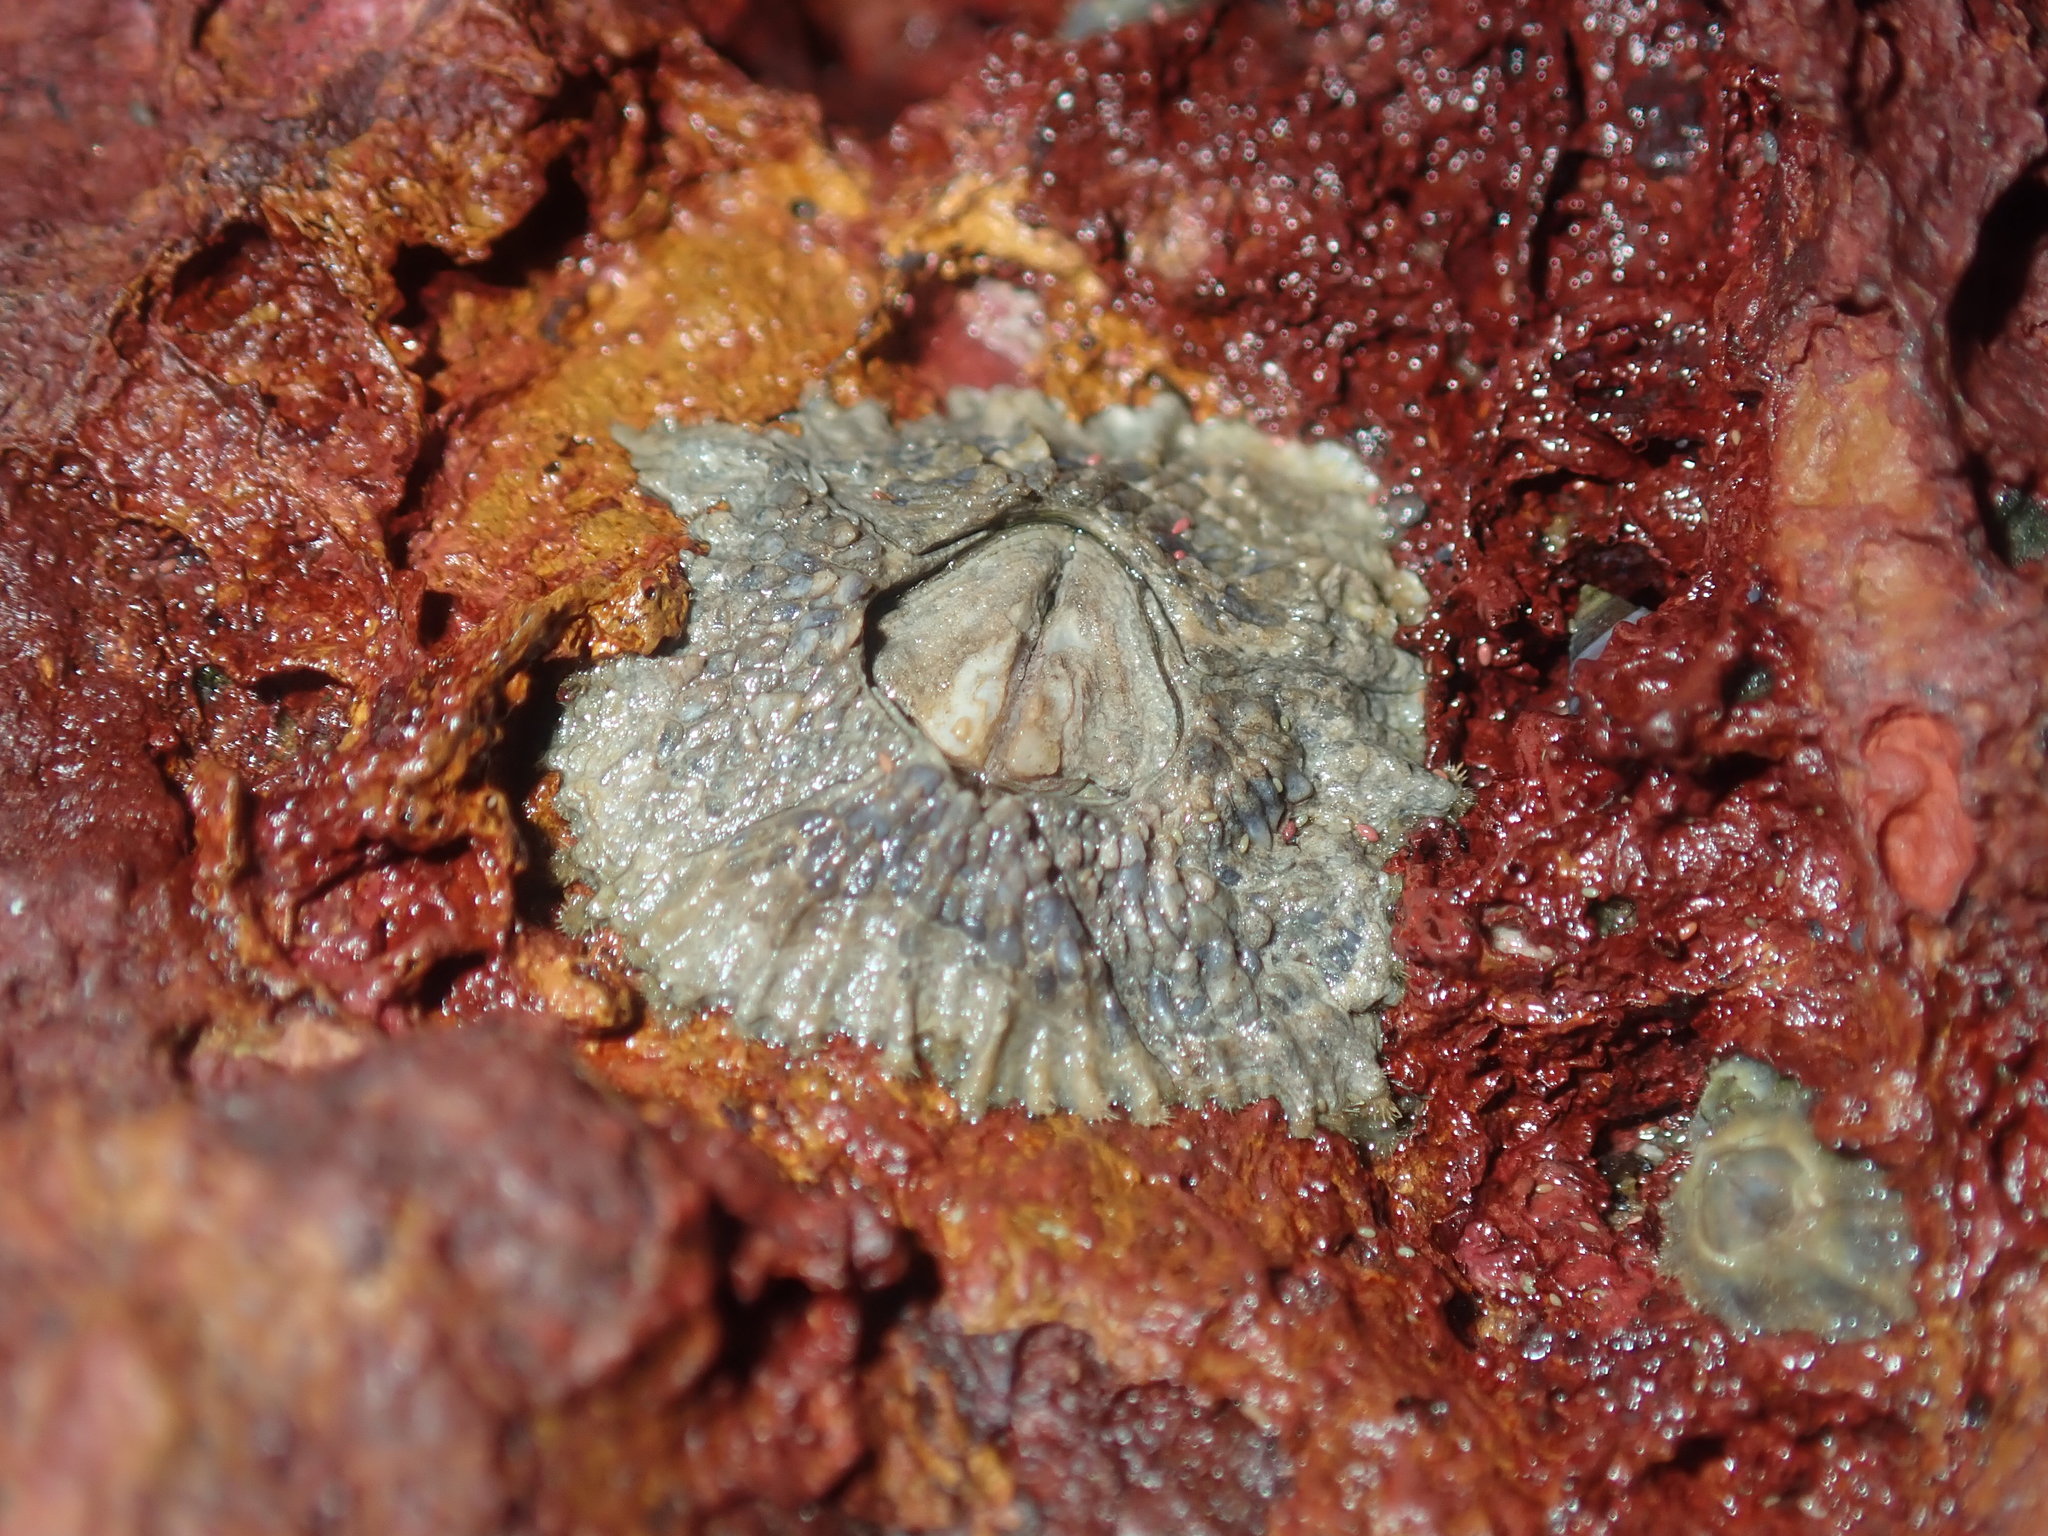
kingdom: Animalia
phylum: Arthropoda
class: Maxillopoda
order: Sessilia
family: Tetraclitidae
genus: Tetraclitella
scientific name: Tetraclitella purpurascens
